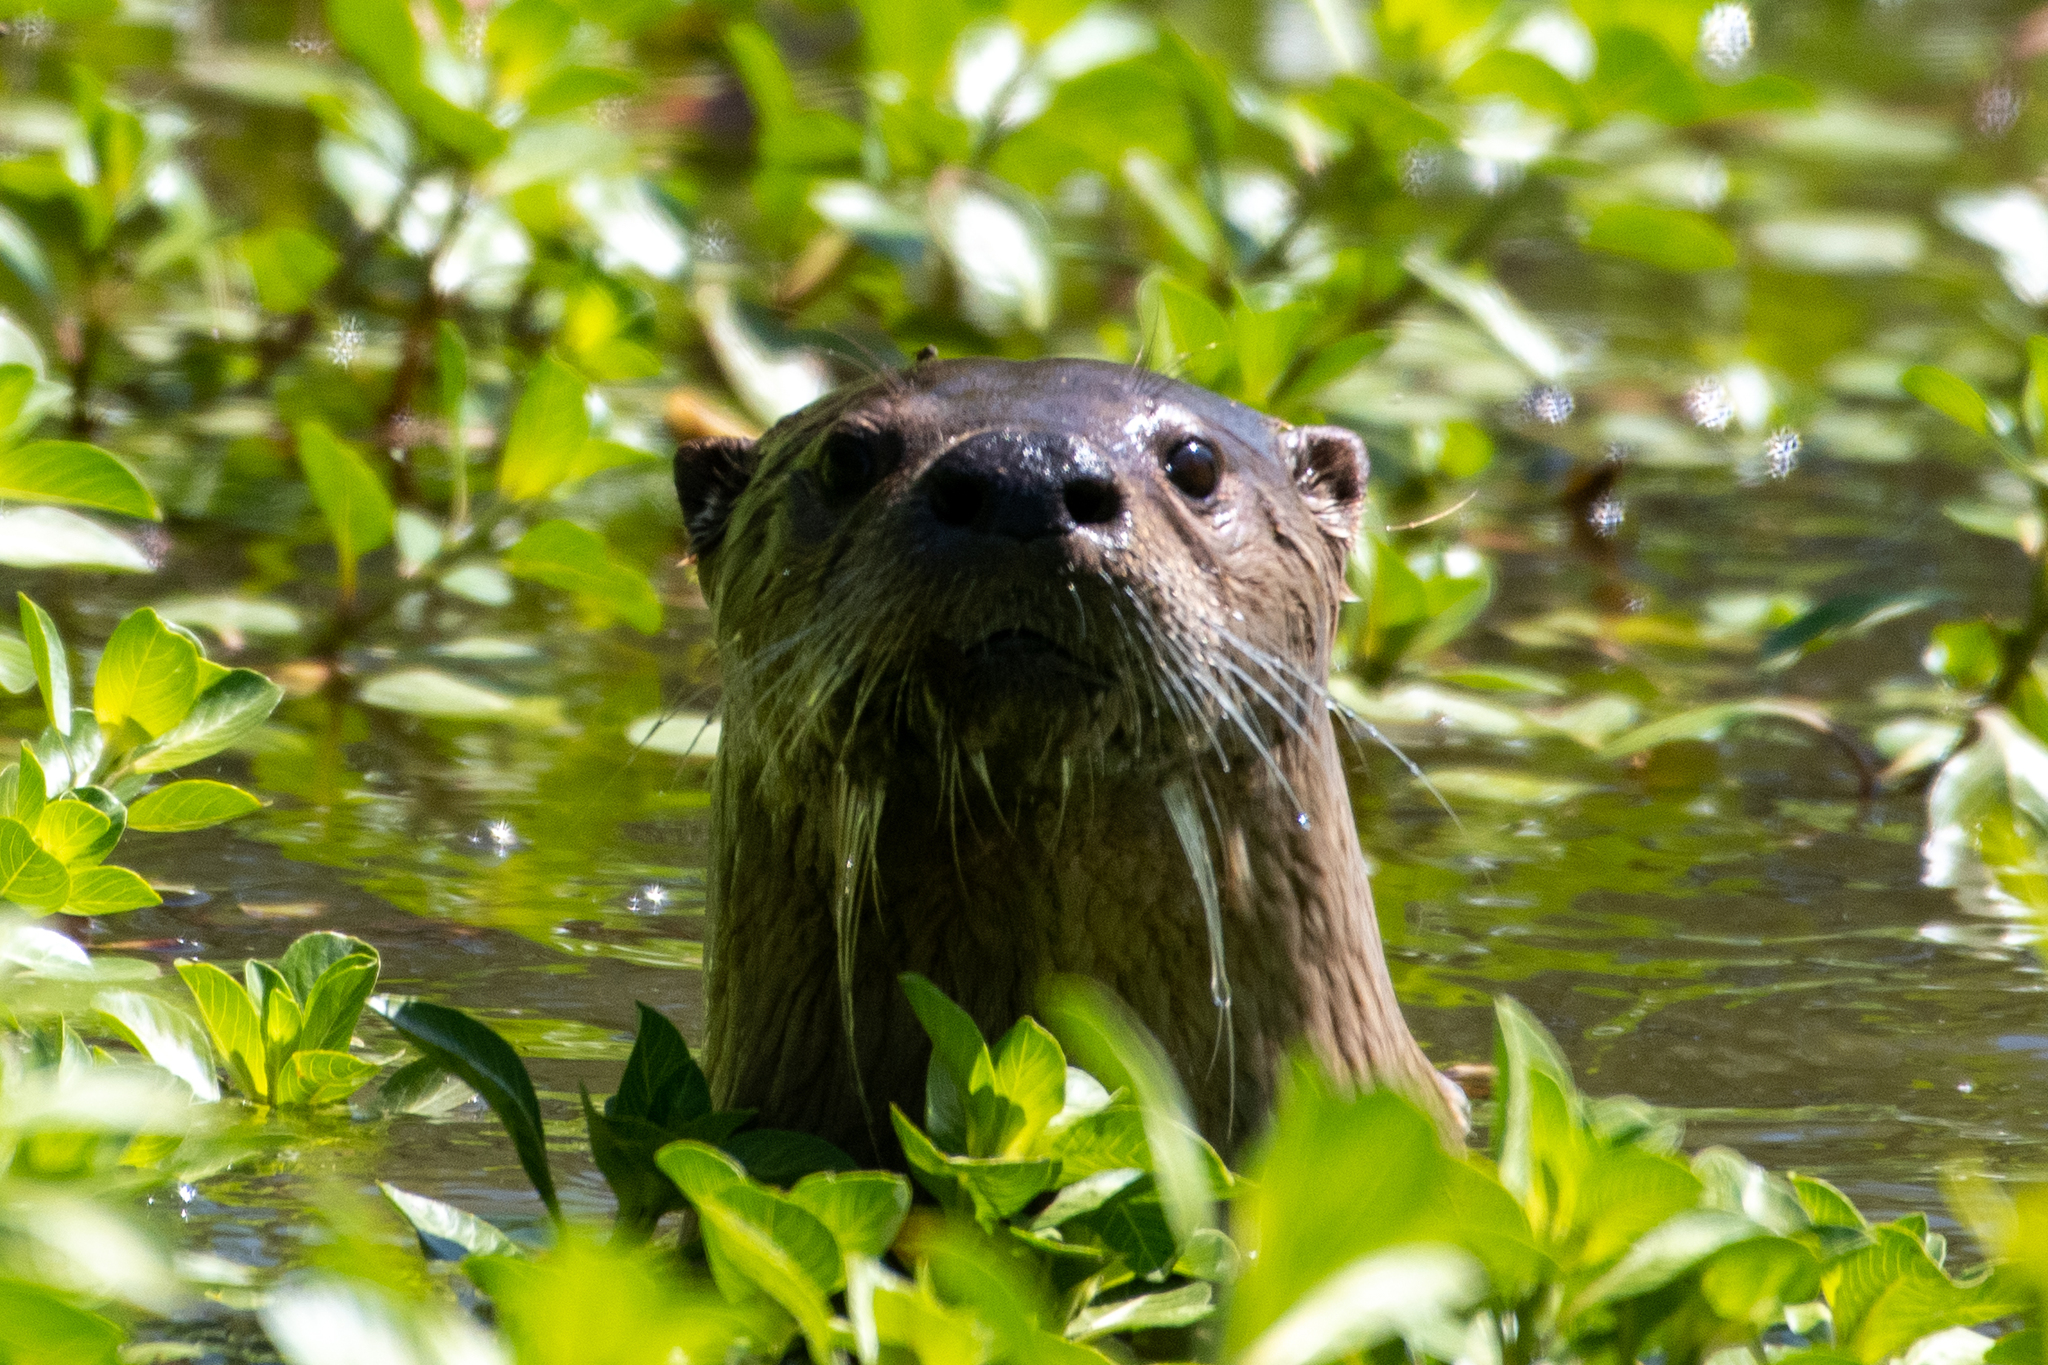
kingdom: Animalia
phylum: Chordata
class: Mammalia
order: Carnivora
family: Mustelidae
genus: Lontra
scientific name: Lontra canadensis
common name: North american river otter
